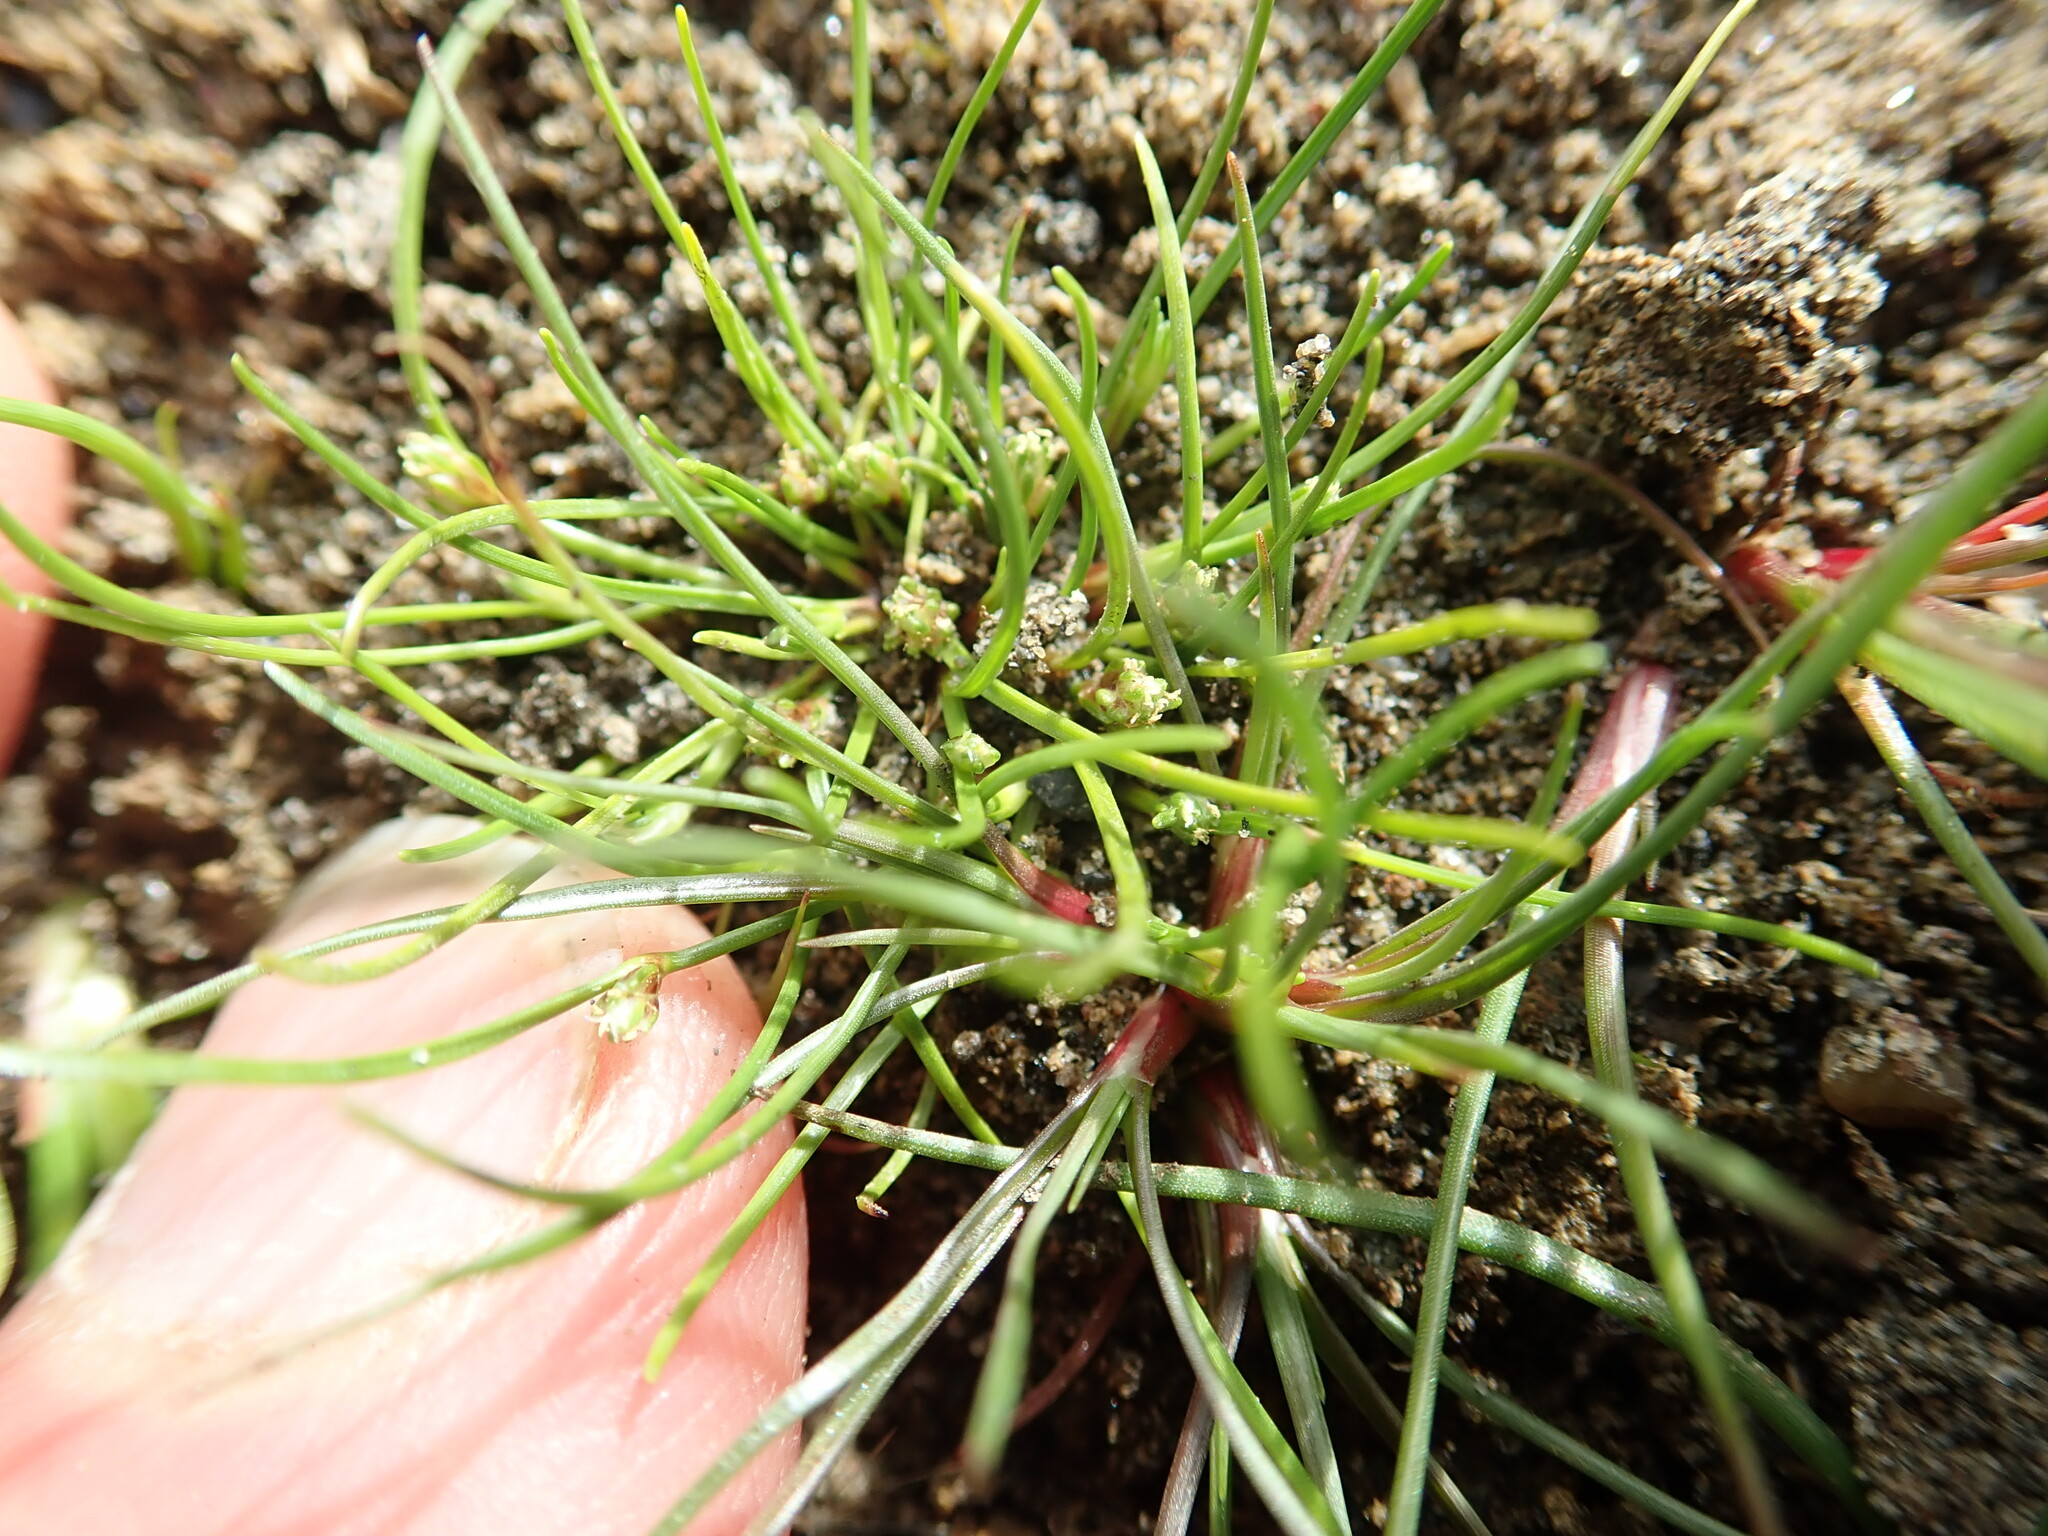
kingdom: Plantae
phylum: Tracheophyta
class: Liliopsida
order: Poales
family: Cyperaceae
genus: Isolepis
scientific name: Isolepis basilaris
